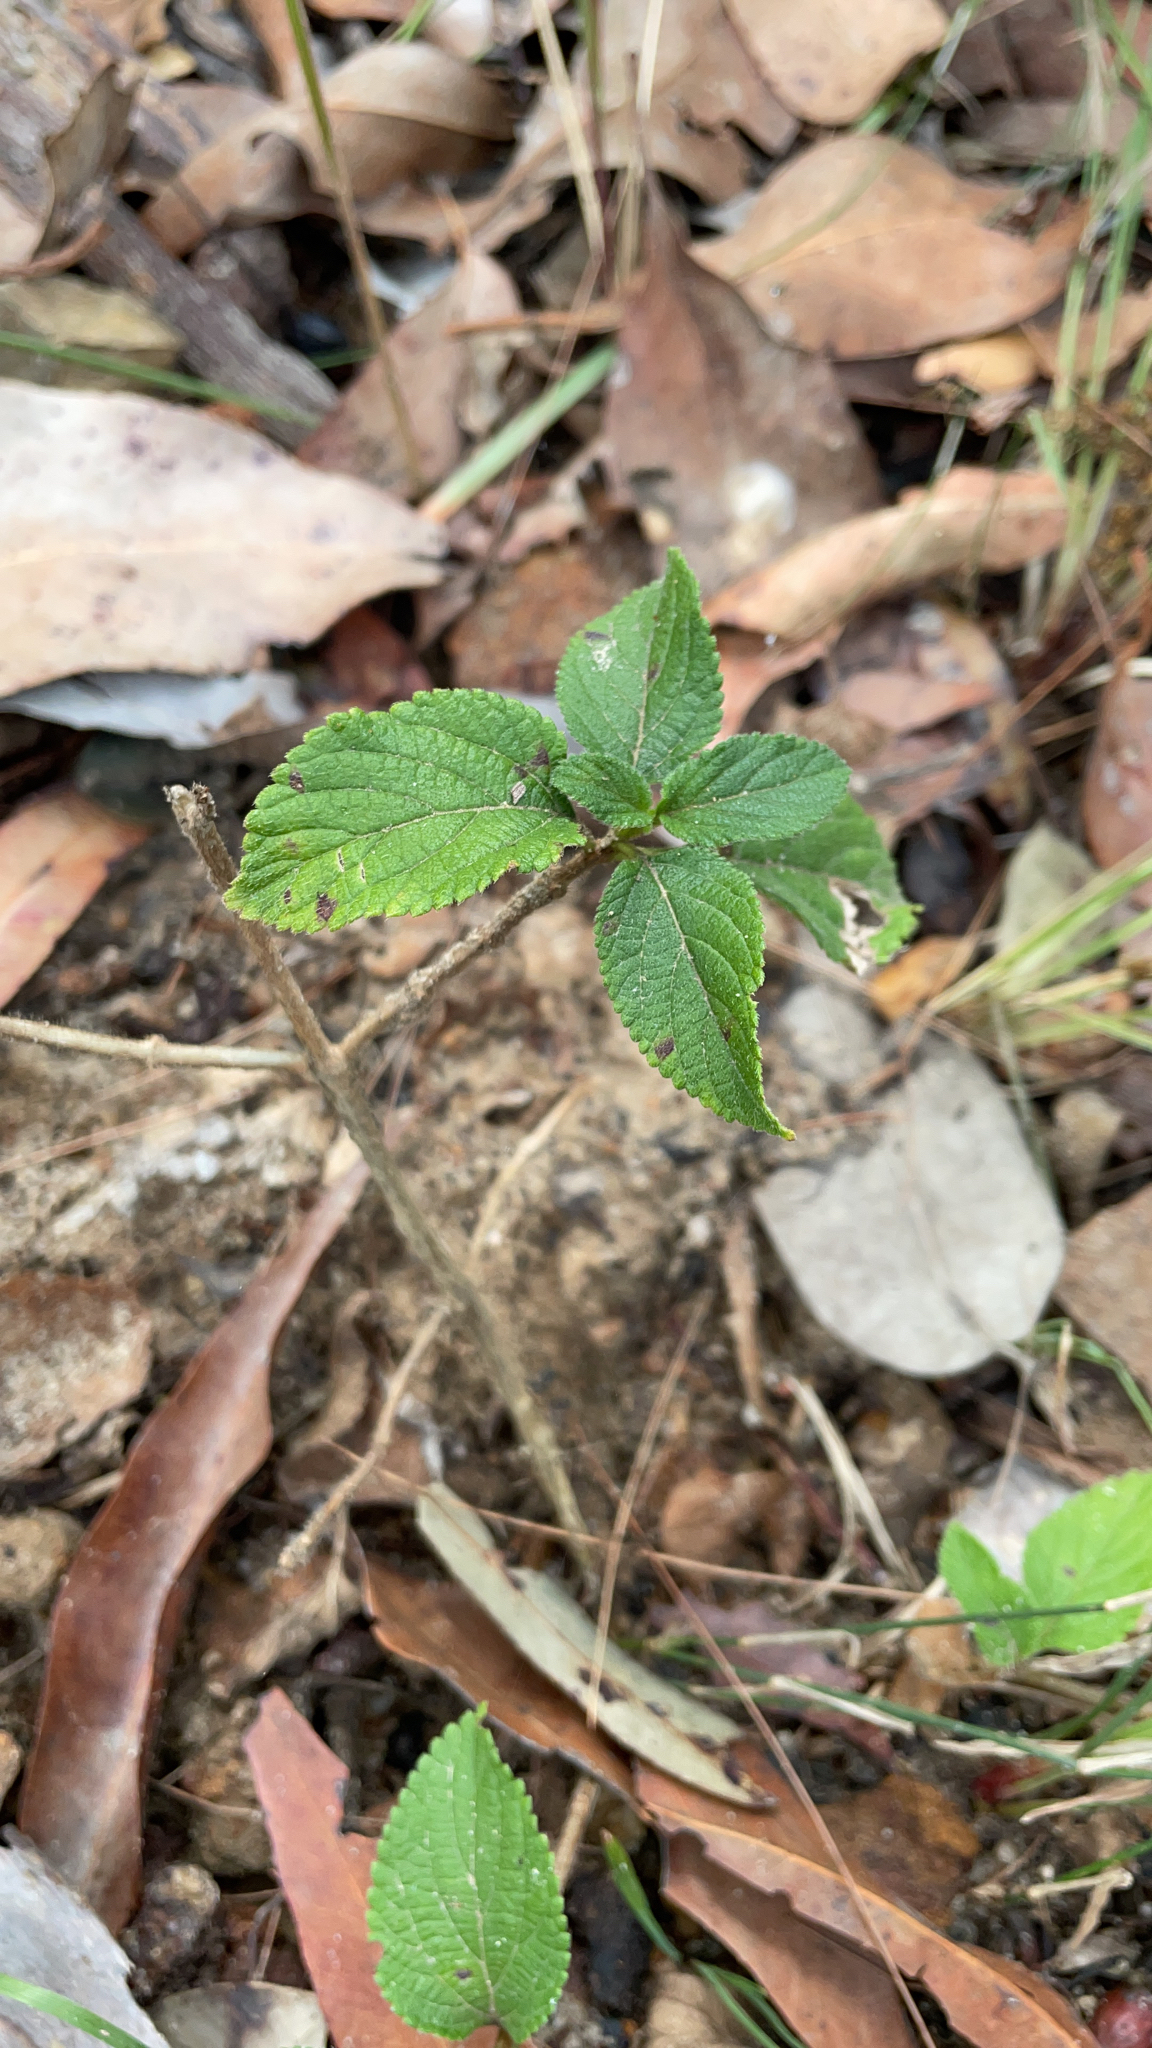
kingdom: Plantae
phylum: Tracheophyta
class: Magnoliopsida
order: Lamiales
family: Verbenaceae
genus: Lantana
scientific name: Lantana camara
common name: Lantana
